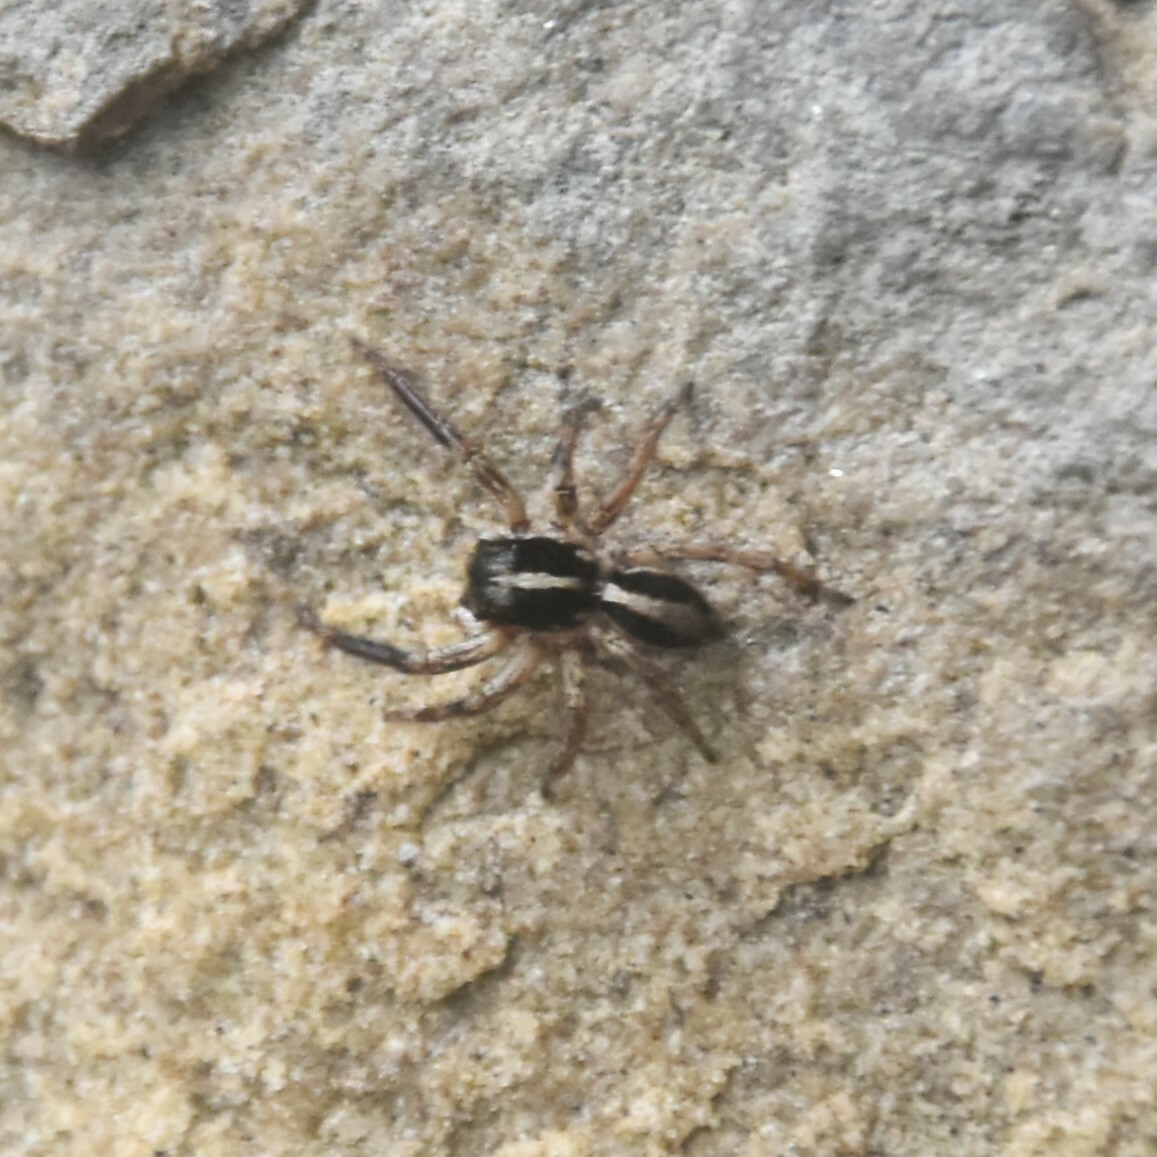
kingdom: Animalia
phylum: Arthropoda
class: Arachnida
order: Araneae
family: Salticidae
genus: Plexippus
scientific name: Plexippus paykulli
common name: Pantropical jumper
